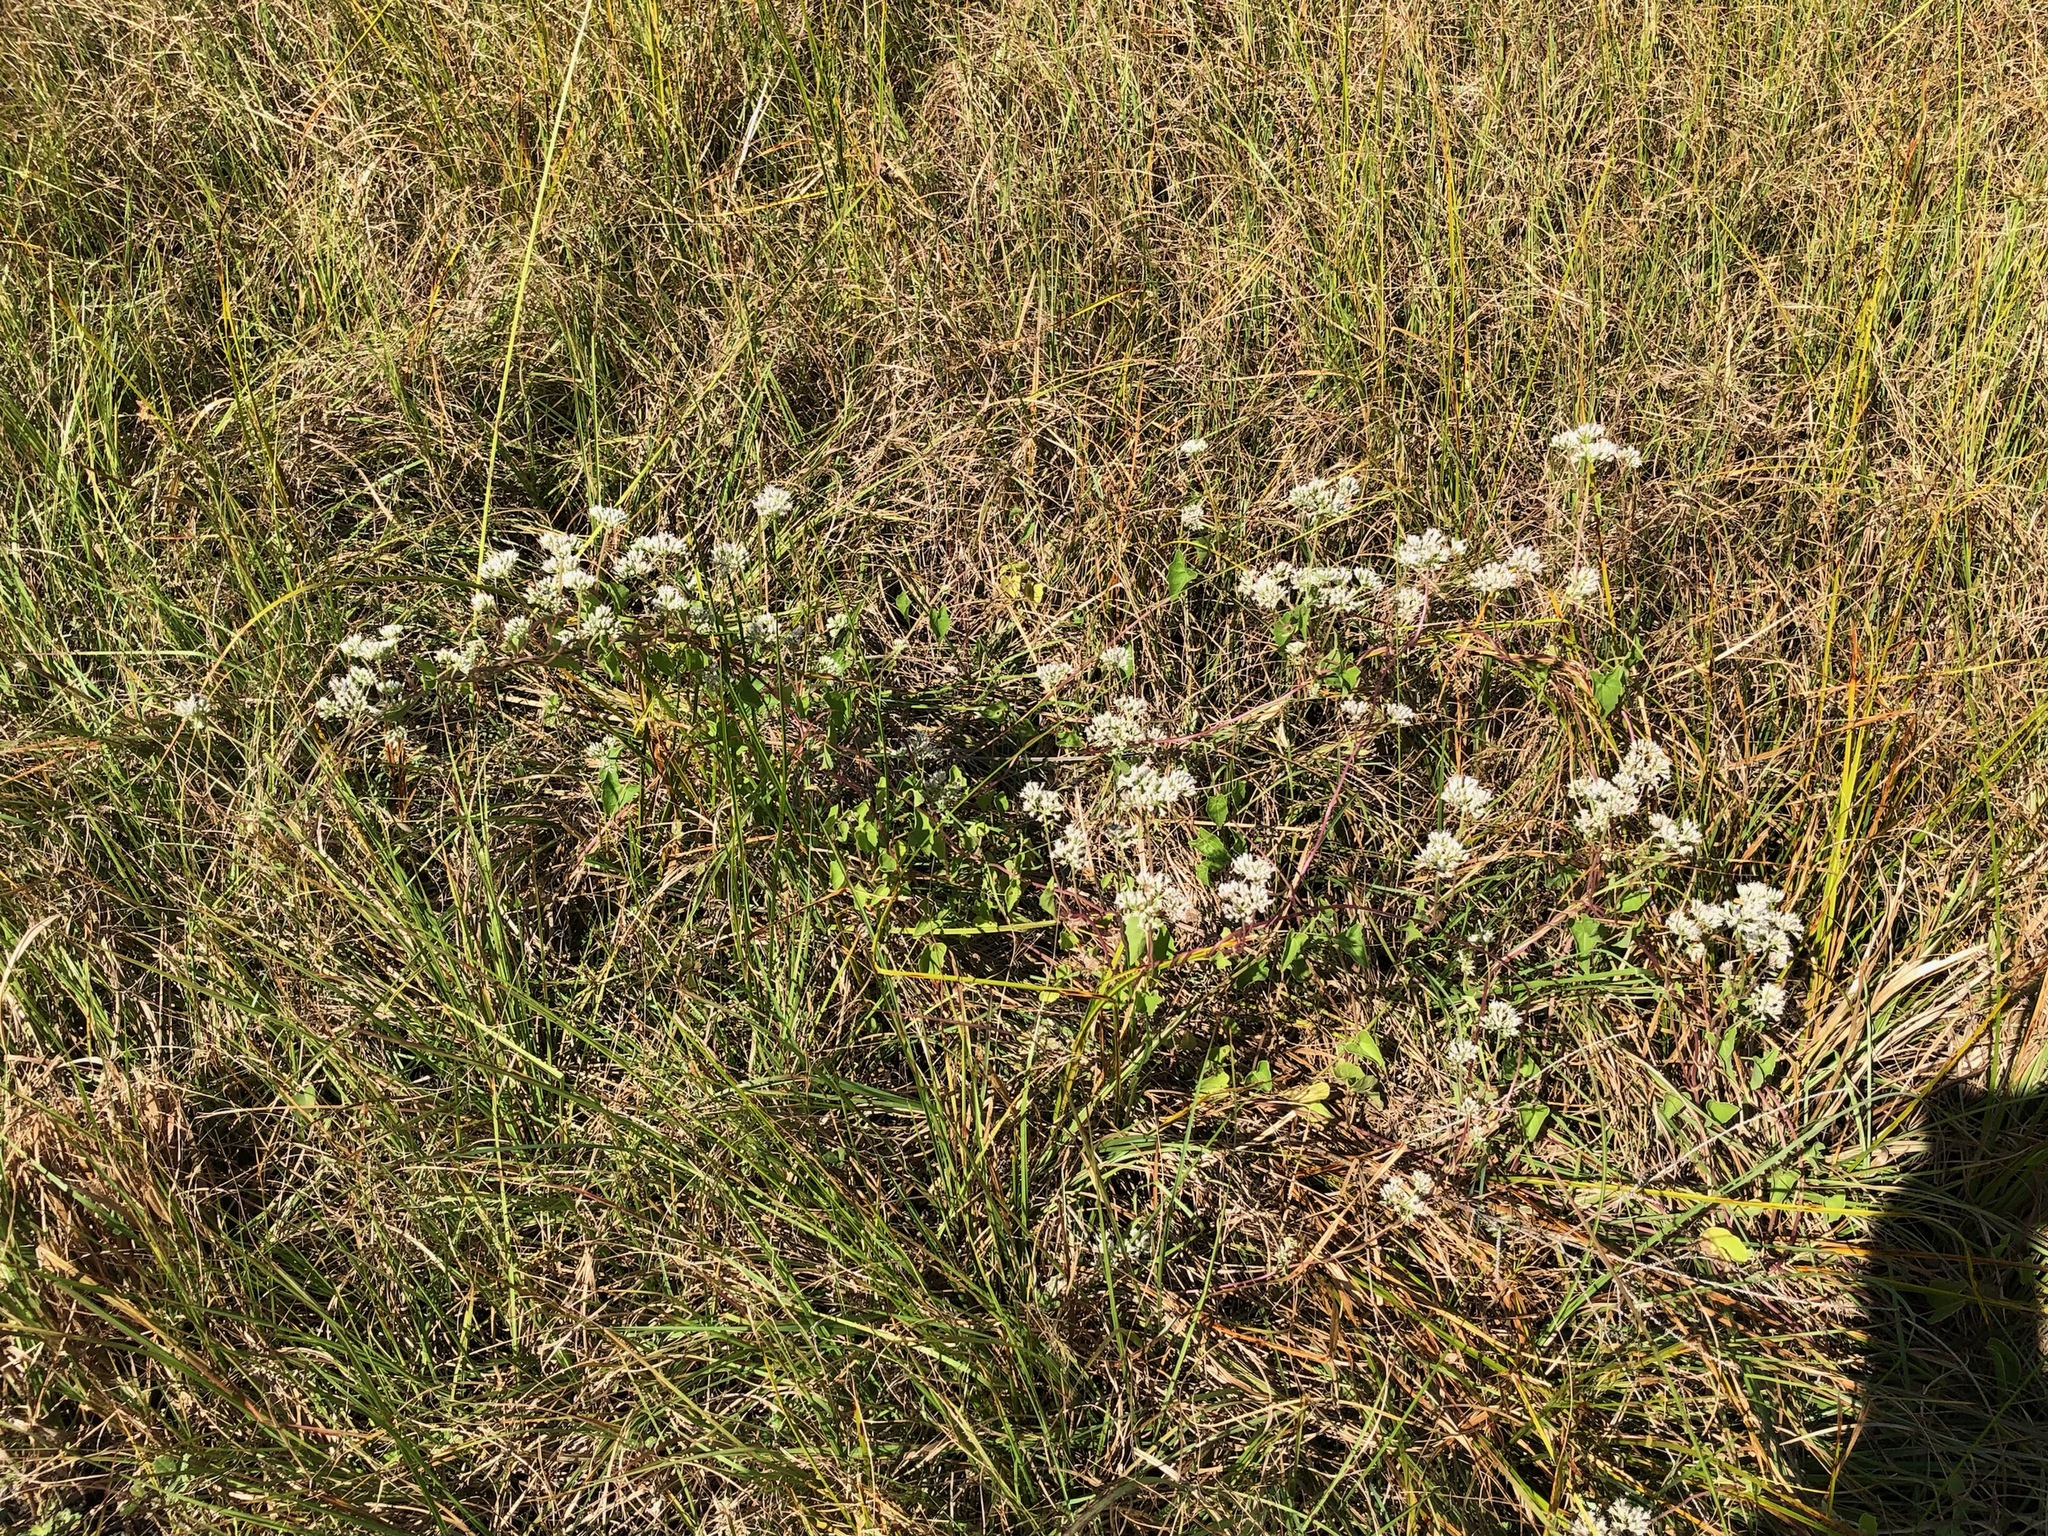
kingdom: Plantae
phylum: Tracheophyta
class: Magnoliopsida
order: Asterales
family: Asteraceae
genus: Mikania
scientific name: Mikania scandens
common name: Climbing hempvine
